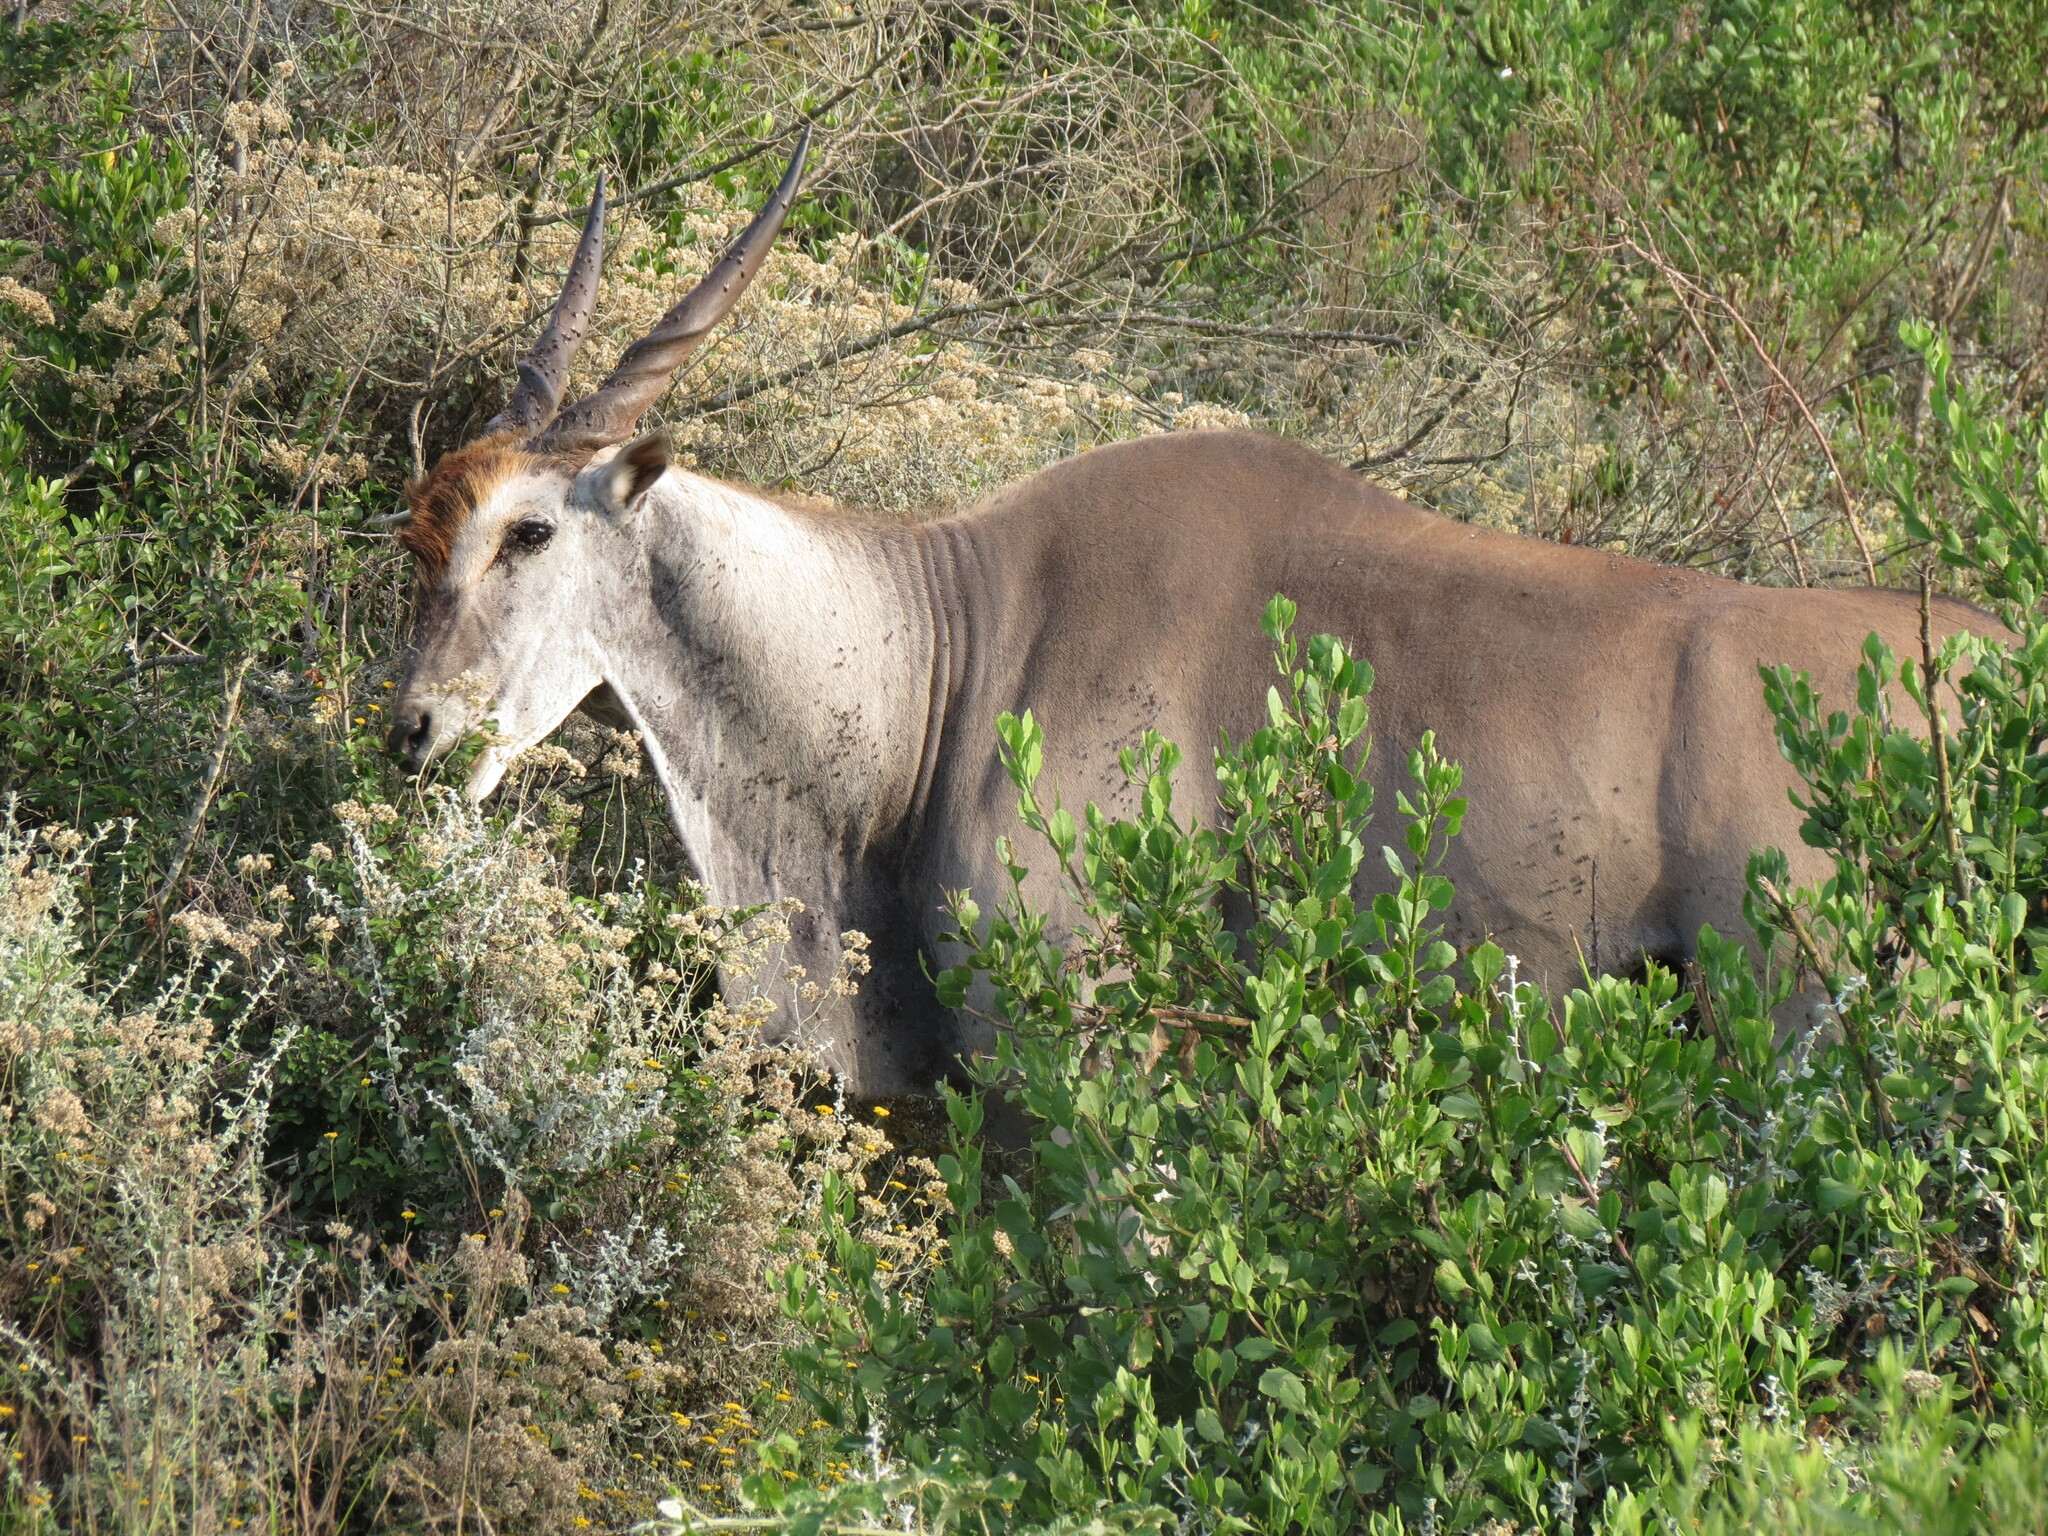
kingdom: Animalia
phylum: Chordata
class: Mammalia
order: Artiodactyla
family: Bovidae
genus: Taurotragus
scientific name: Taurotragus oryx
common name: Common eland
